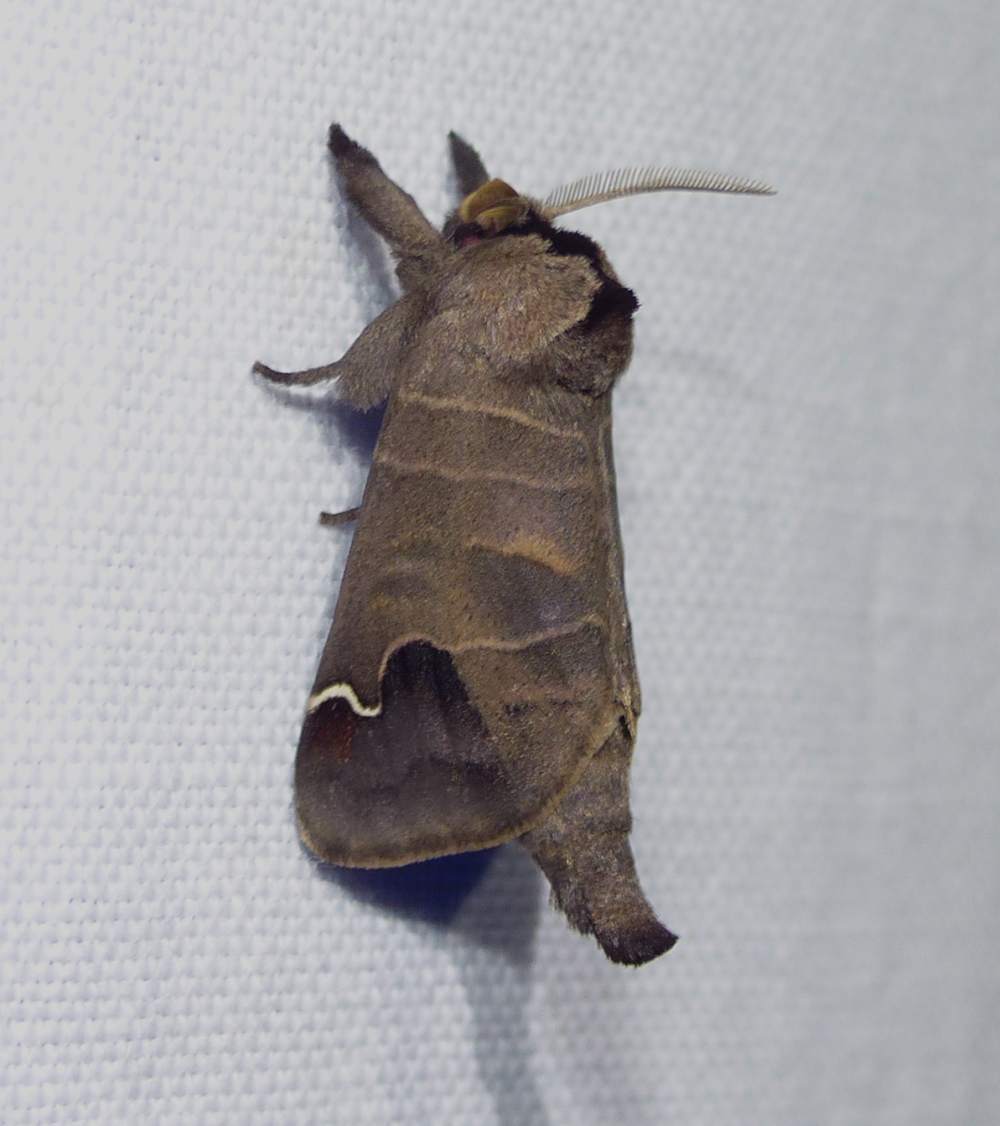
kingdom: Animalia
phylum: Arthropoda
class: Insecta
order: Lepidoptera
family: Notodontidae
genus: Clostera
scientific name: Clostera albosigma
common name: Sigmoid prominent
